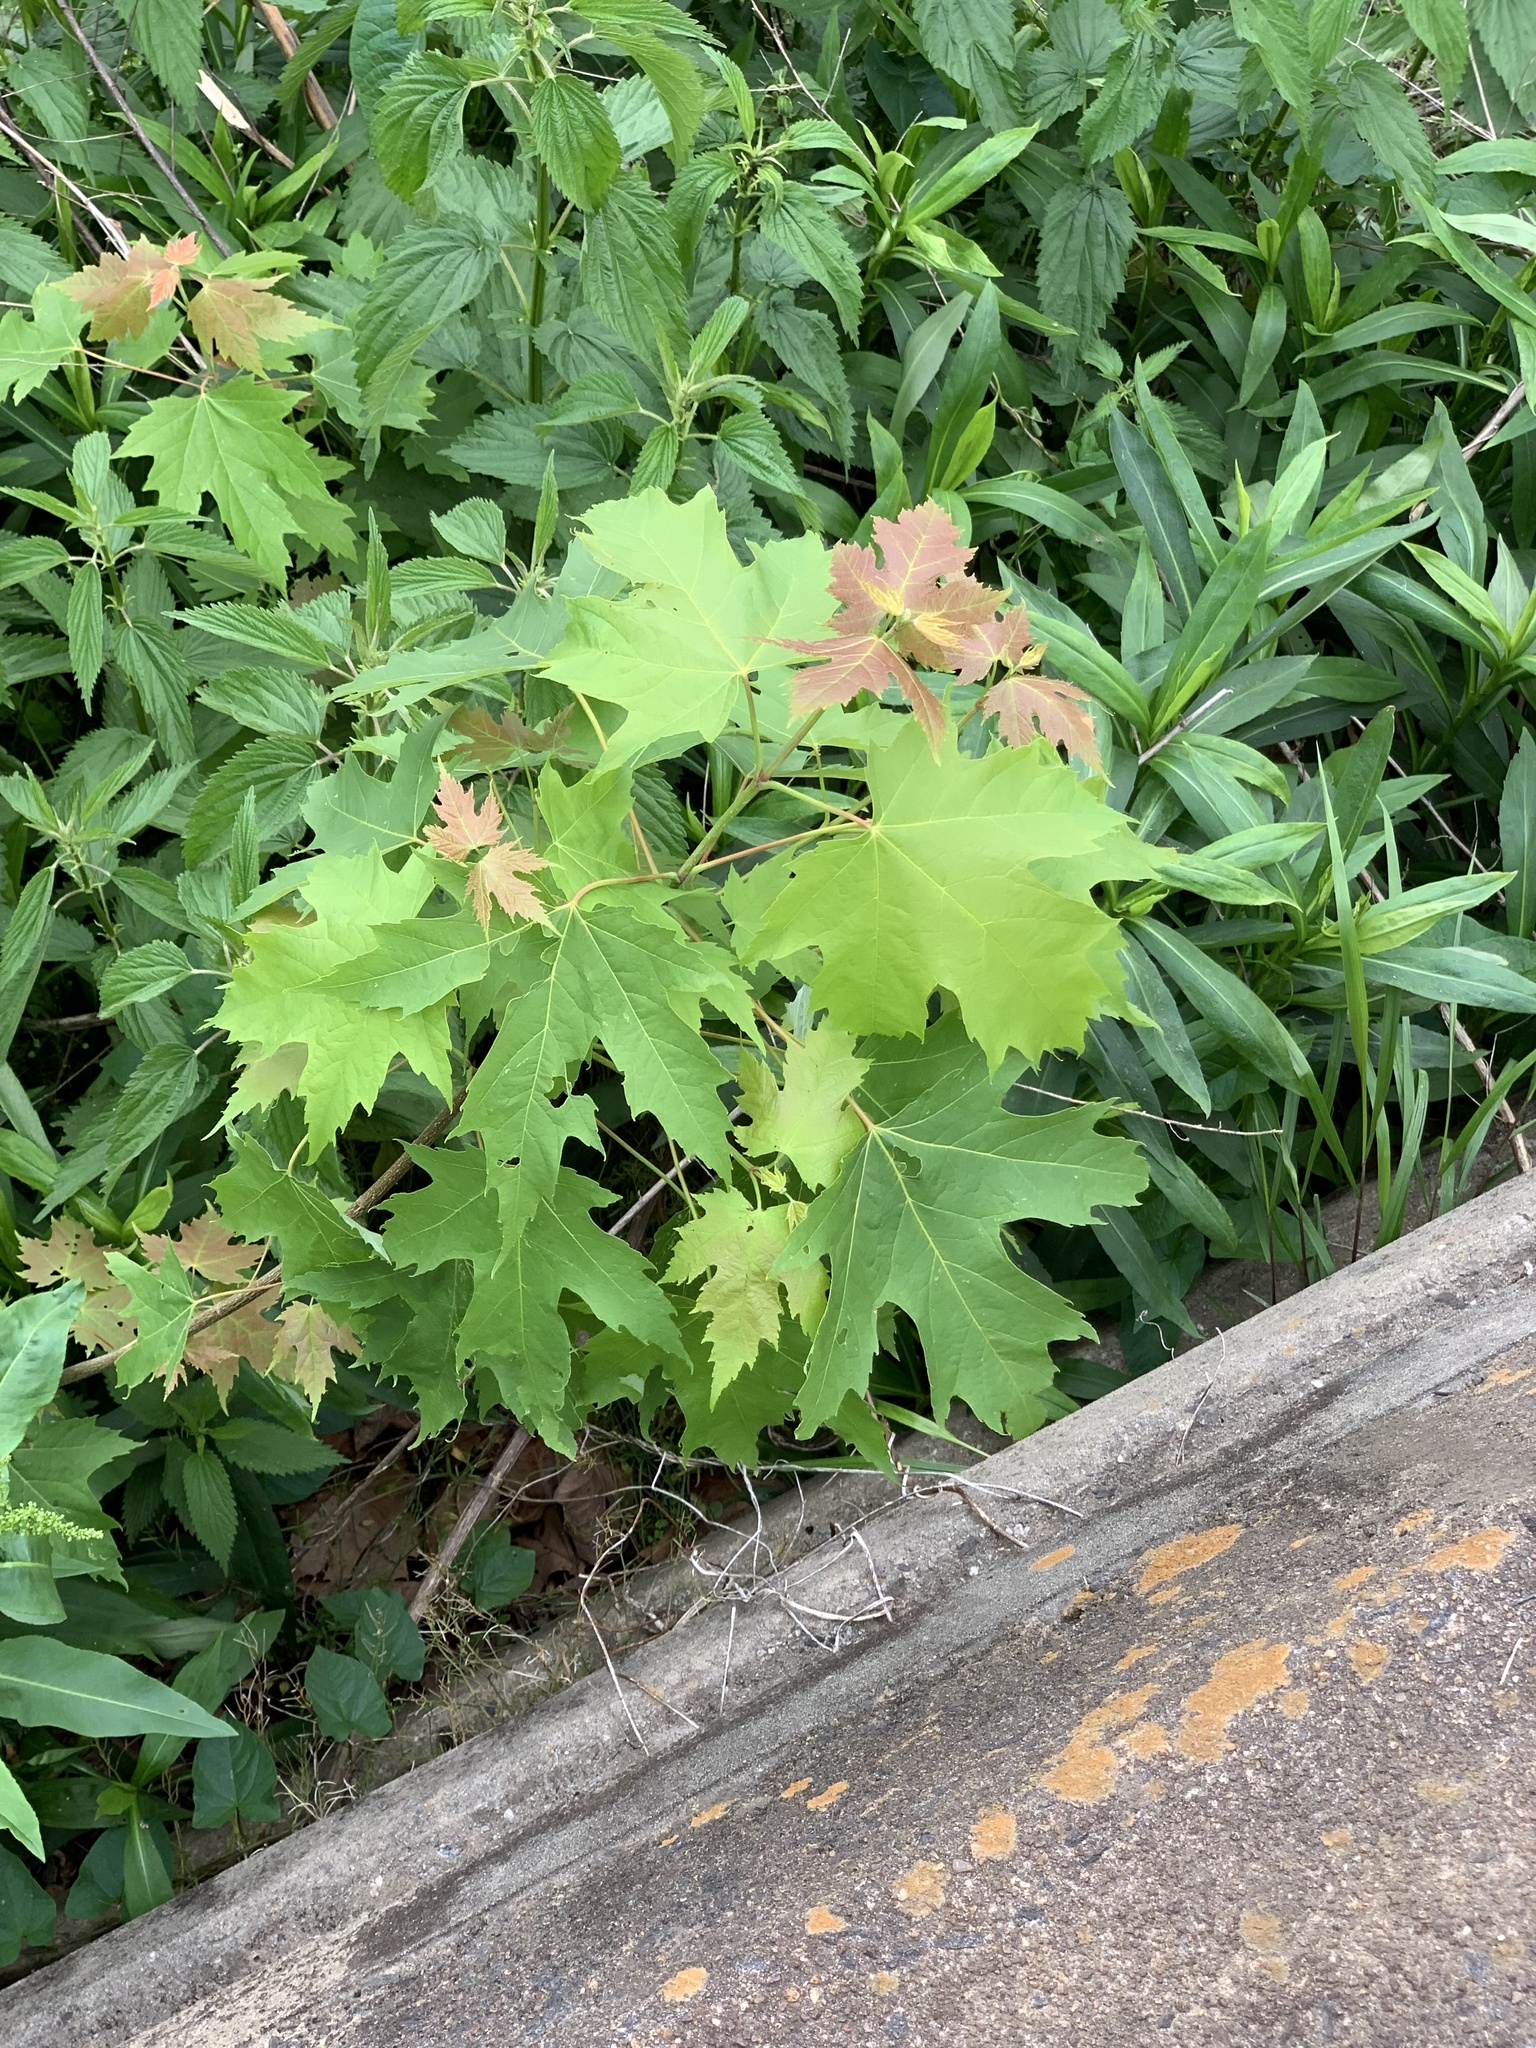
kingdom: Plantae
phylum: Tracheophyta
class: Magnoliopsida
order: Sapindales
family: Sapindaceae
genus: Acer
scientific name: Acer saccharinum
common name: Silver maple
